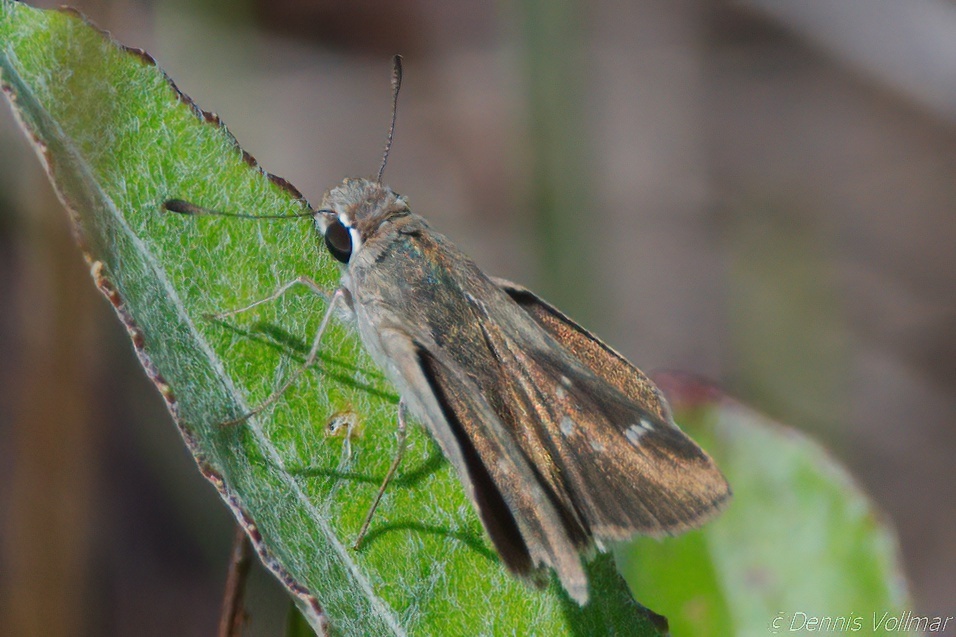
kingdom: Animalia
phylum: Arthropoda
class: Insecta
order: Lepidoptera
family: Hesperiidae
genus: Lerodea
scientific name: Lerodea eufala
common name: Eufala skipper
